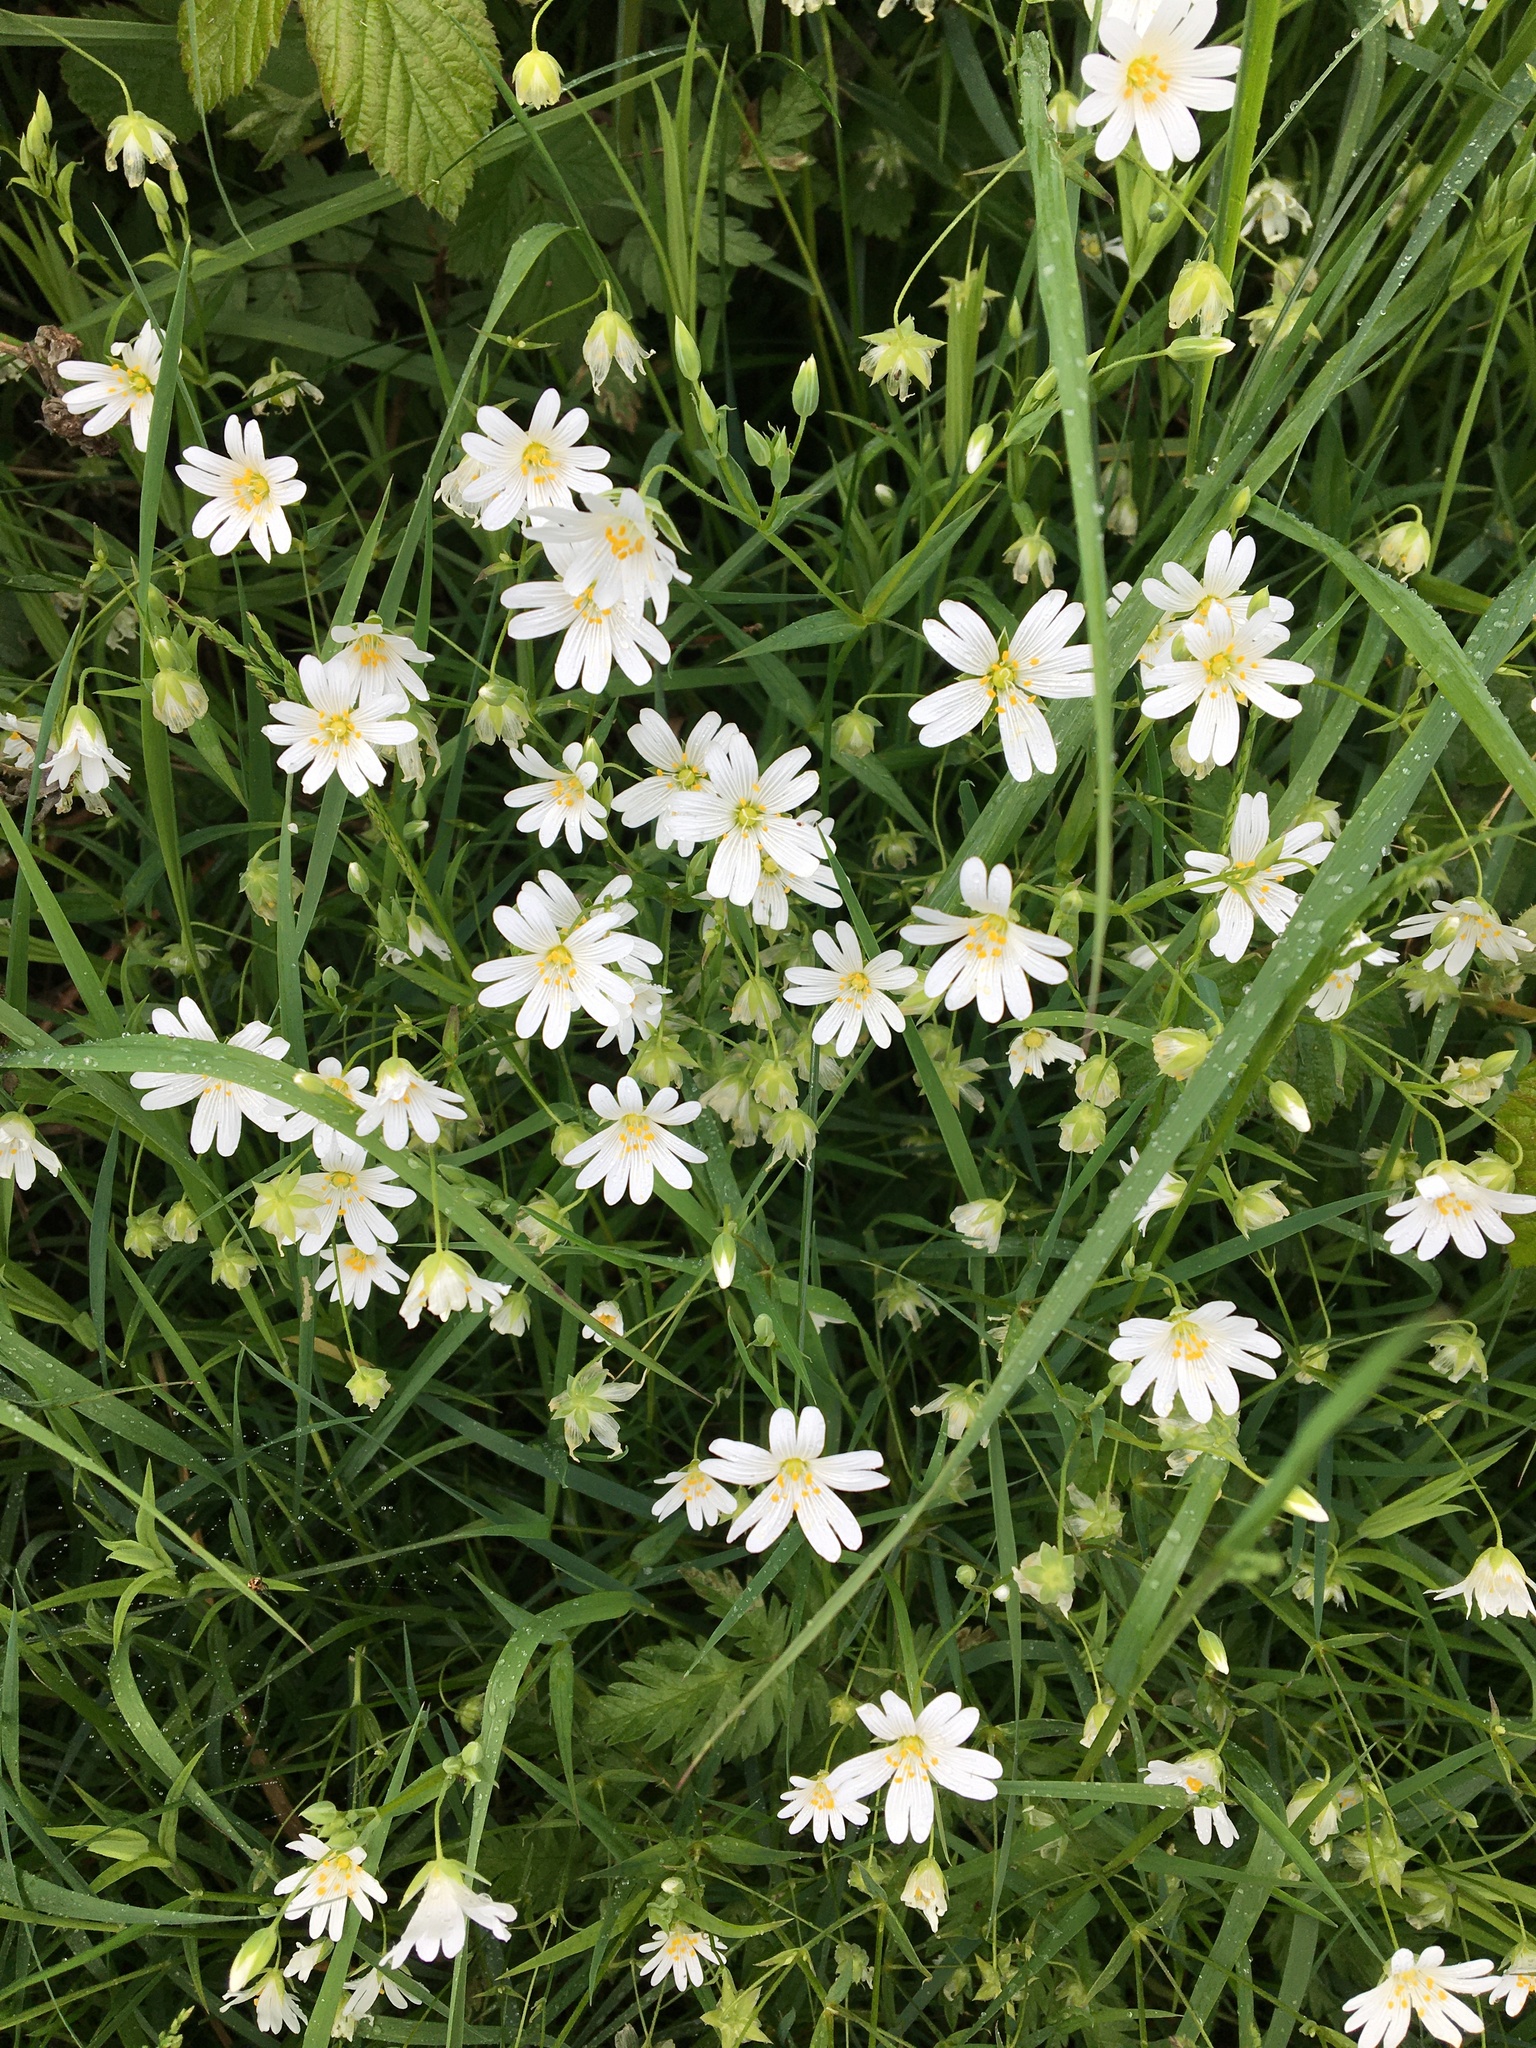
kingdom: Plantae
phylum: Tracheophyta
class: Magnoliopsida
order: Caryophyllales
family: Caryophyllaceae
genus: Rabelera
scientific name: Rabelera holostea
